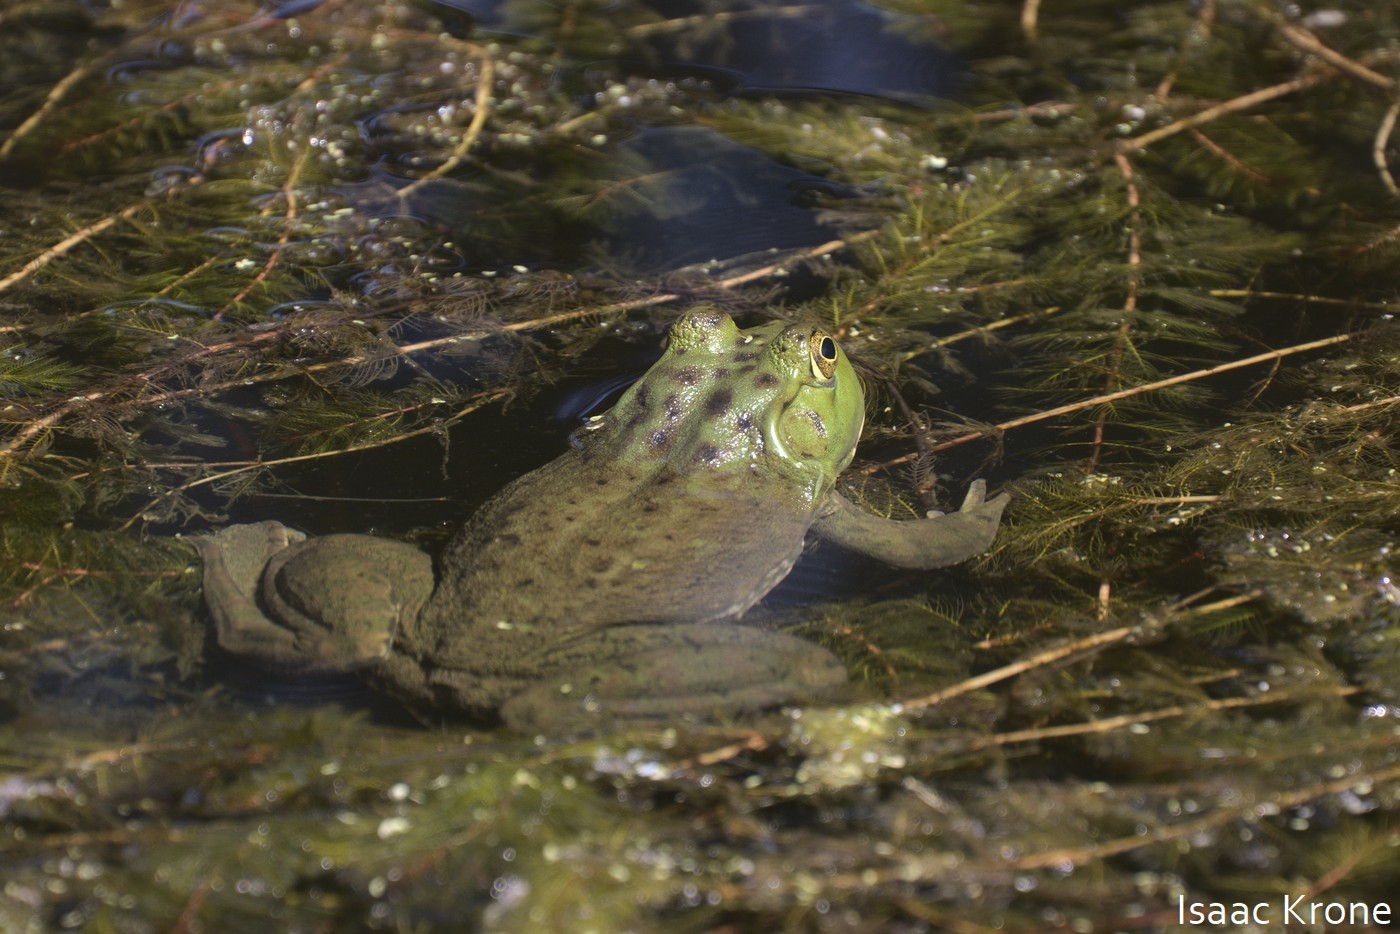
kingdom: Animalia
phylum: Chordata
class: Amphibia
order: Anura
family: Ranidae
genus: Lithobates
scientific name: Lithobates catesbeianus
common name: American bullfrog
